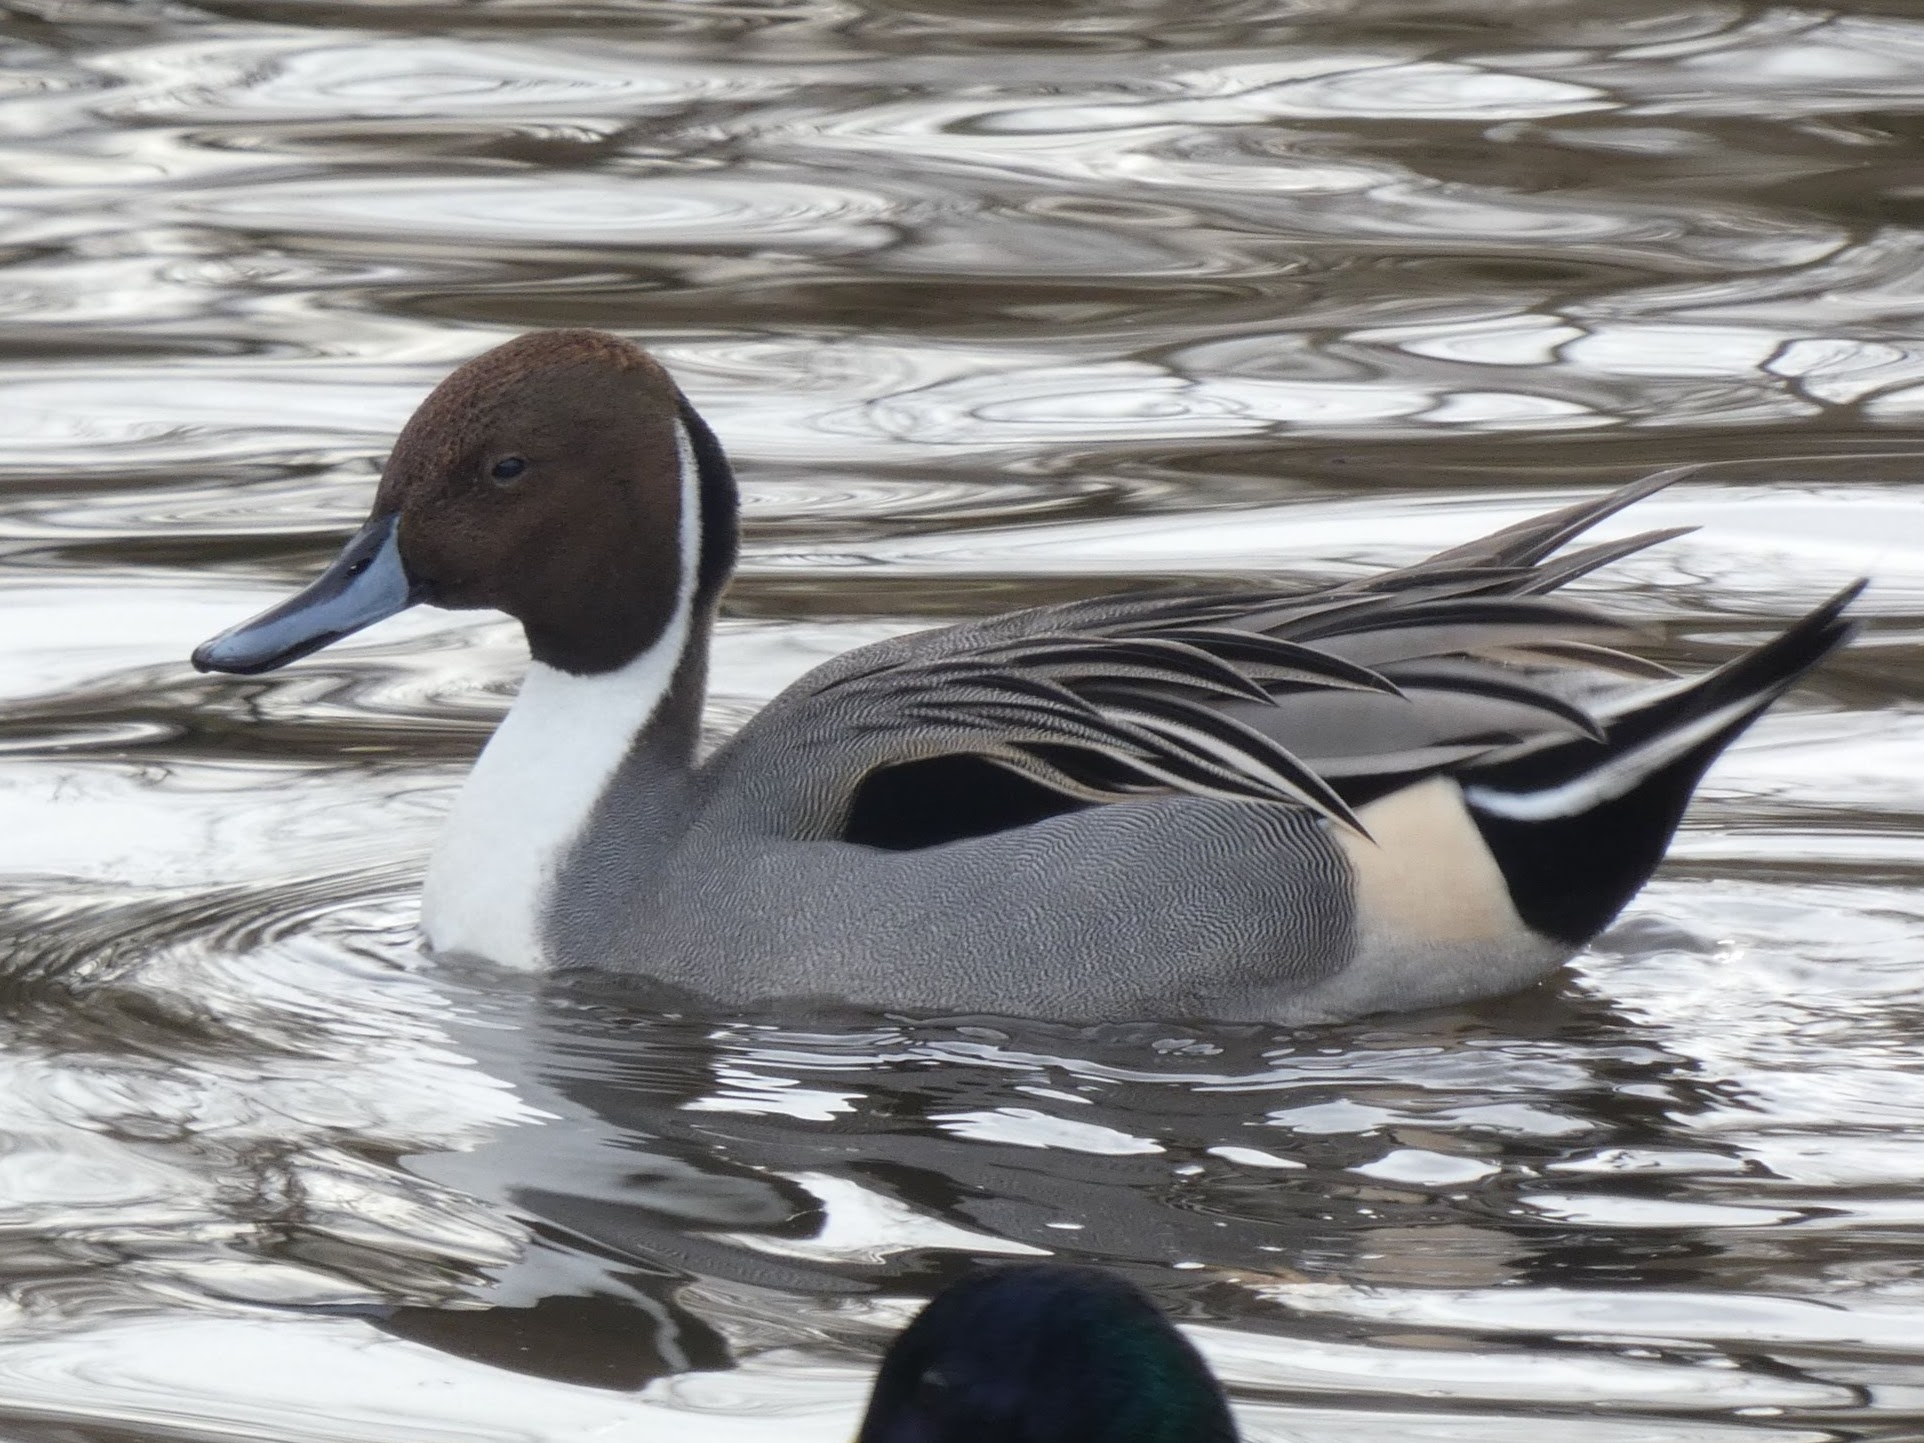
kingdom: Animalia
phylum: Chordata
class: Aves
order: Anseriformes
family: Anatidae
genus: Anas
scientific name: Anas acuta
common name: Northern pintail
